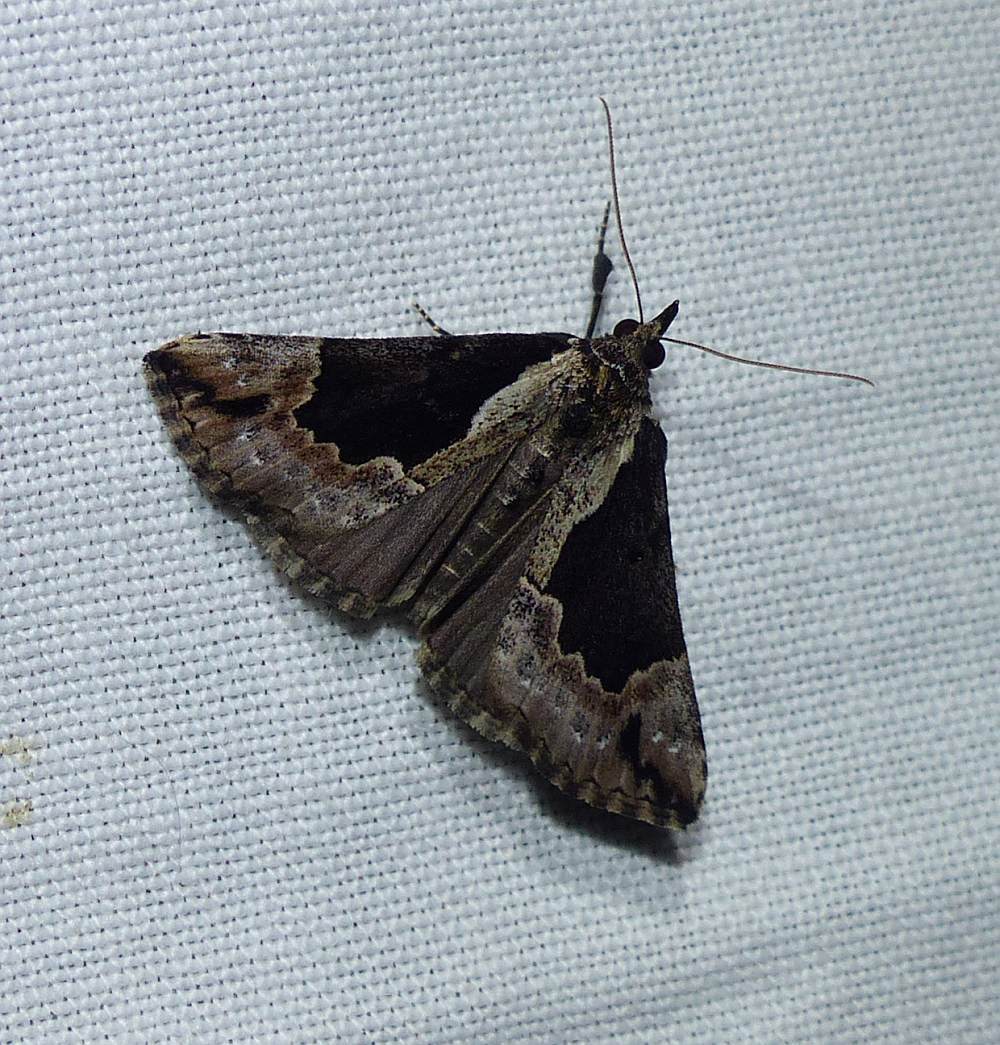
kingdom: Animalia
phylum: Arthropoda
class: Insecta
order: Lepidoptera
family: Erebidae
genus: Hypena
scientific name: Hypena baltimoralis
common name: Baltimore snout
